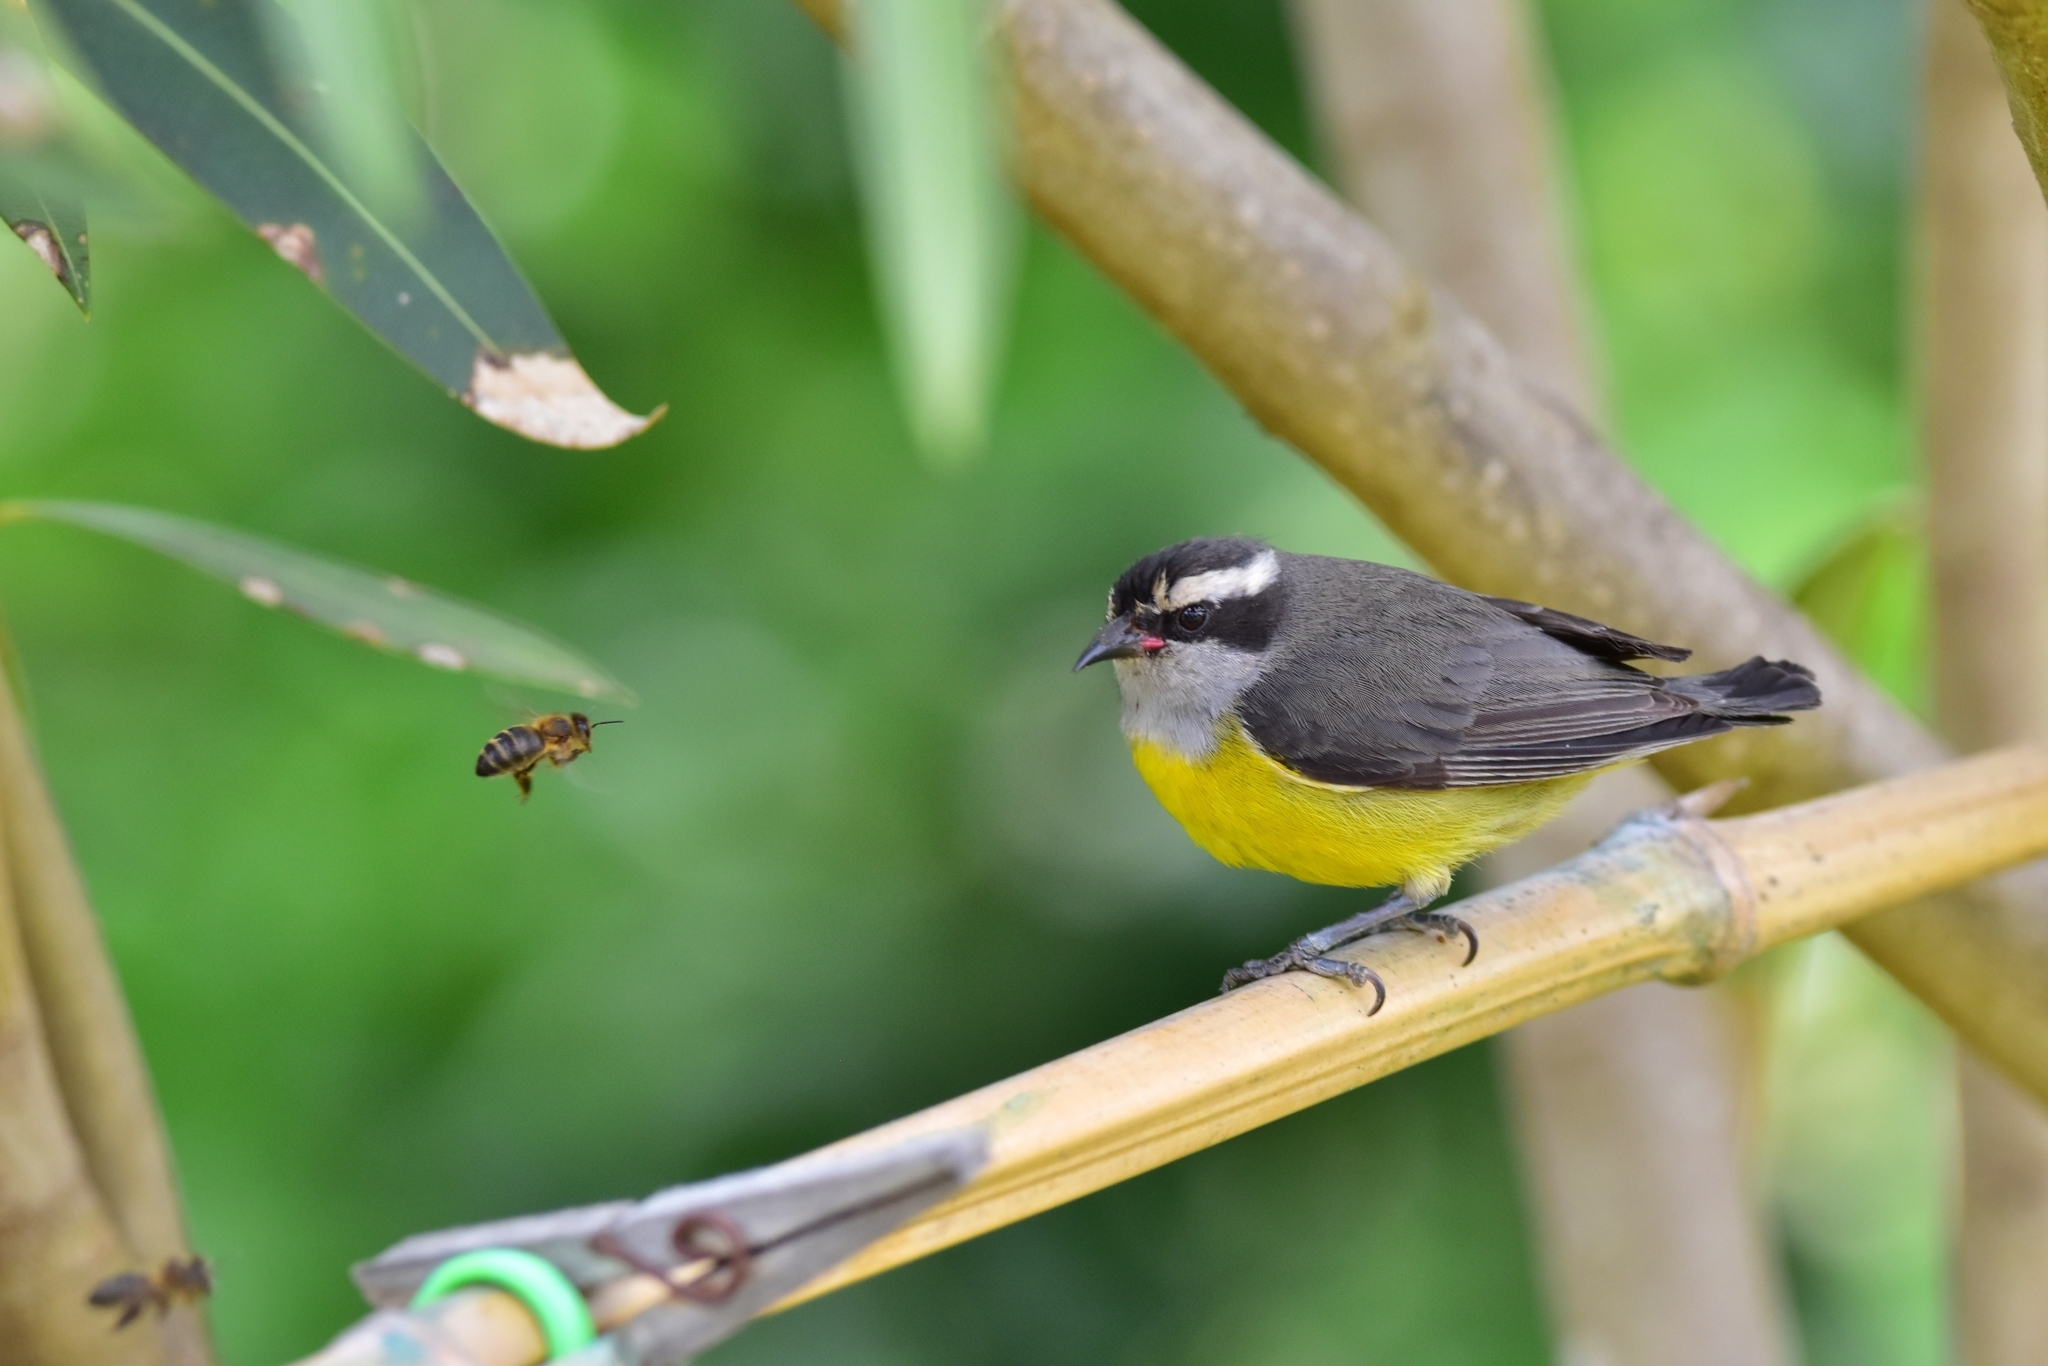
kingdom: Animalia
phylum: Chordata
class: Aves
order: Passeriformes
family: Thraupidae
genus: Coereba
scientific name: Coereba flaveola
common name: Bananaquit
